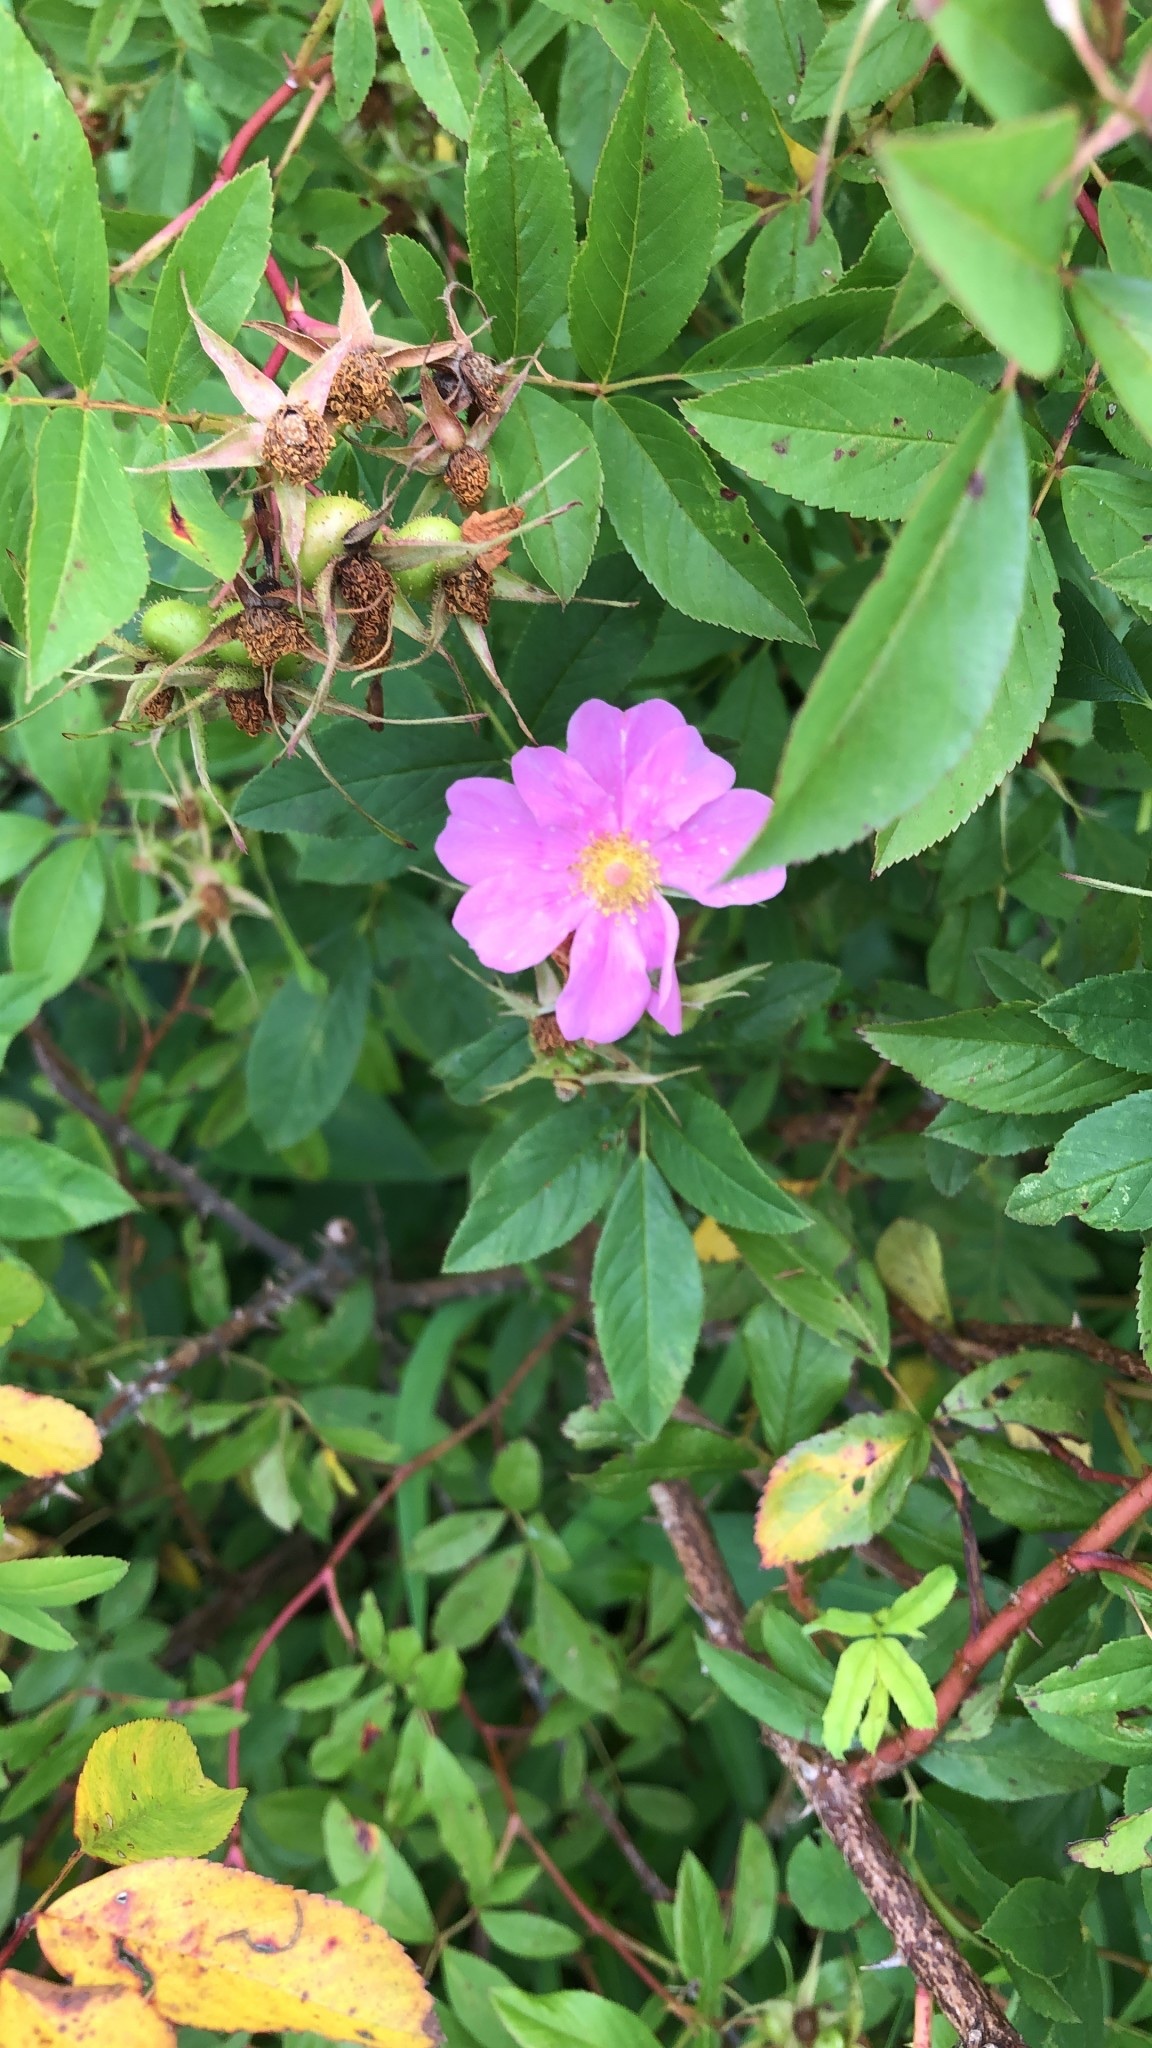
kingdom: Plantae
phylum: Tracheophyta
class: Magnoliopsida
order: Rosales
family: Rosaceae
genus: Rosa
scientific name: Rosa palustris
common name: Swamp rose
